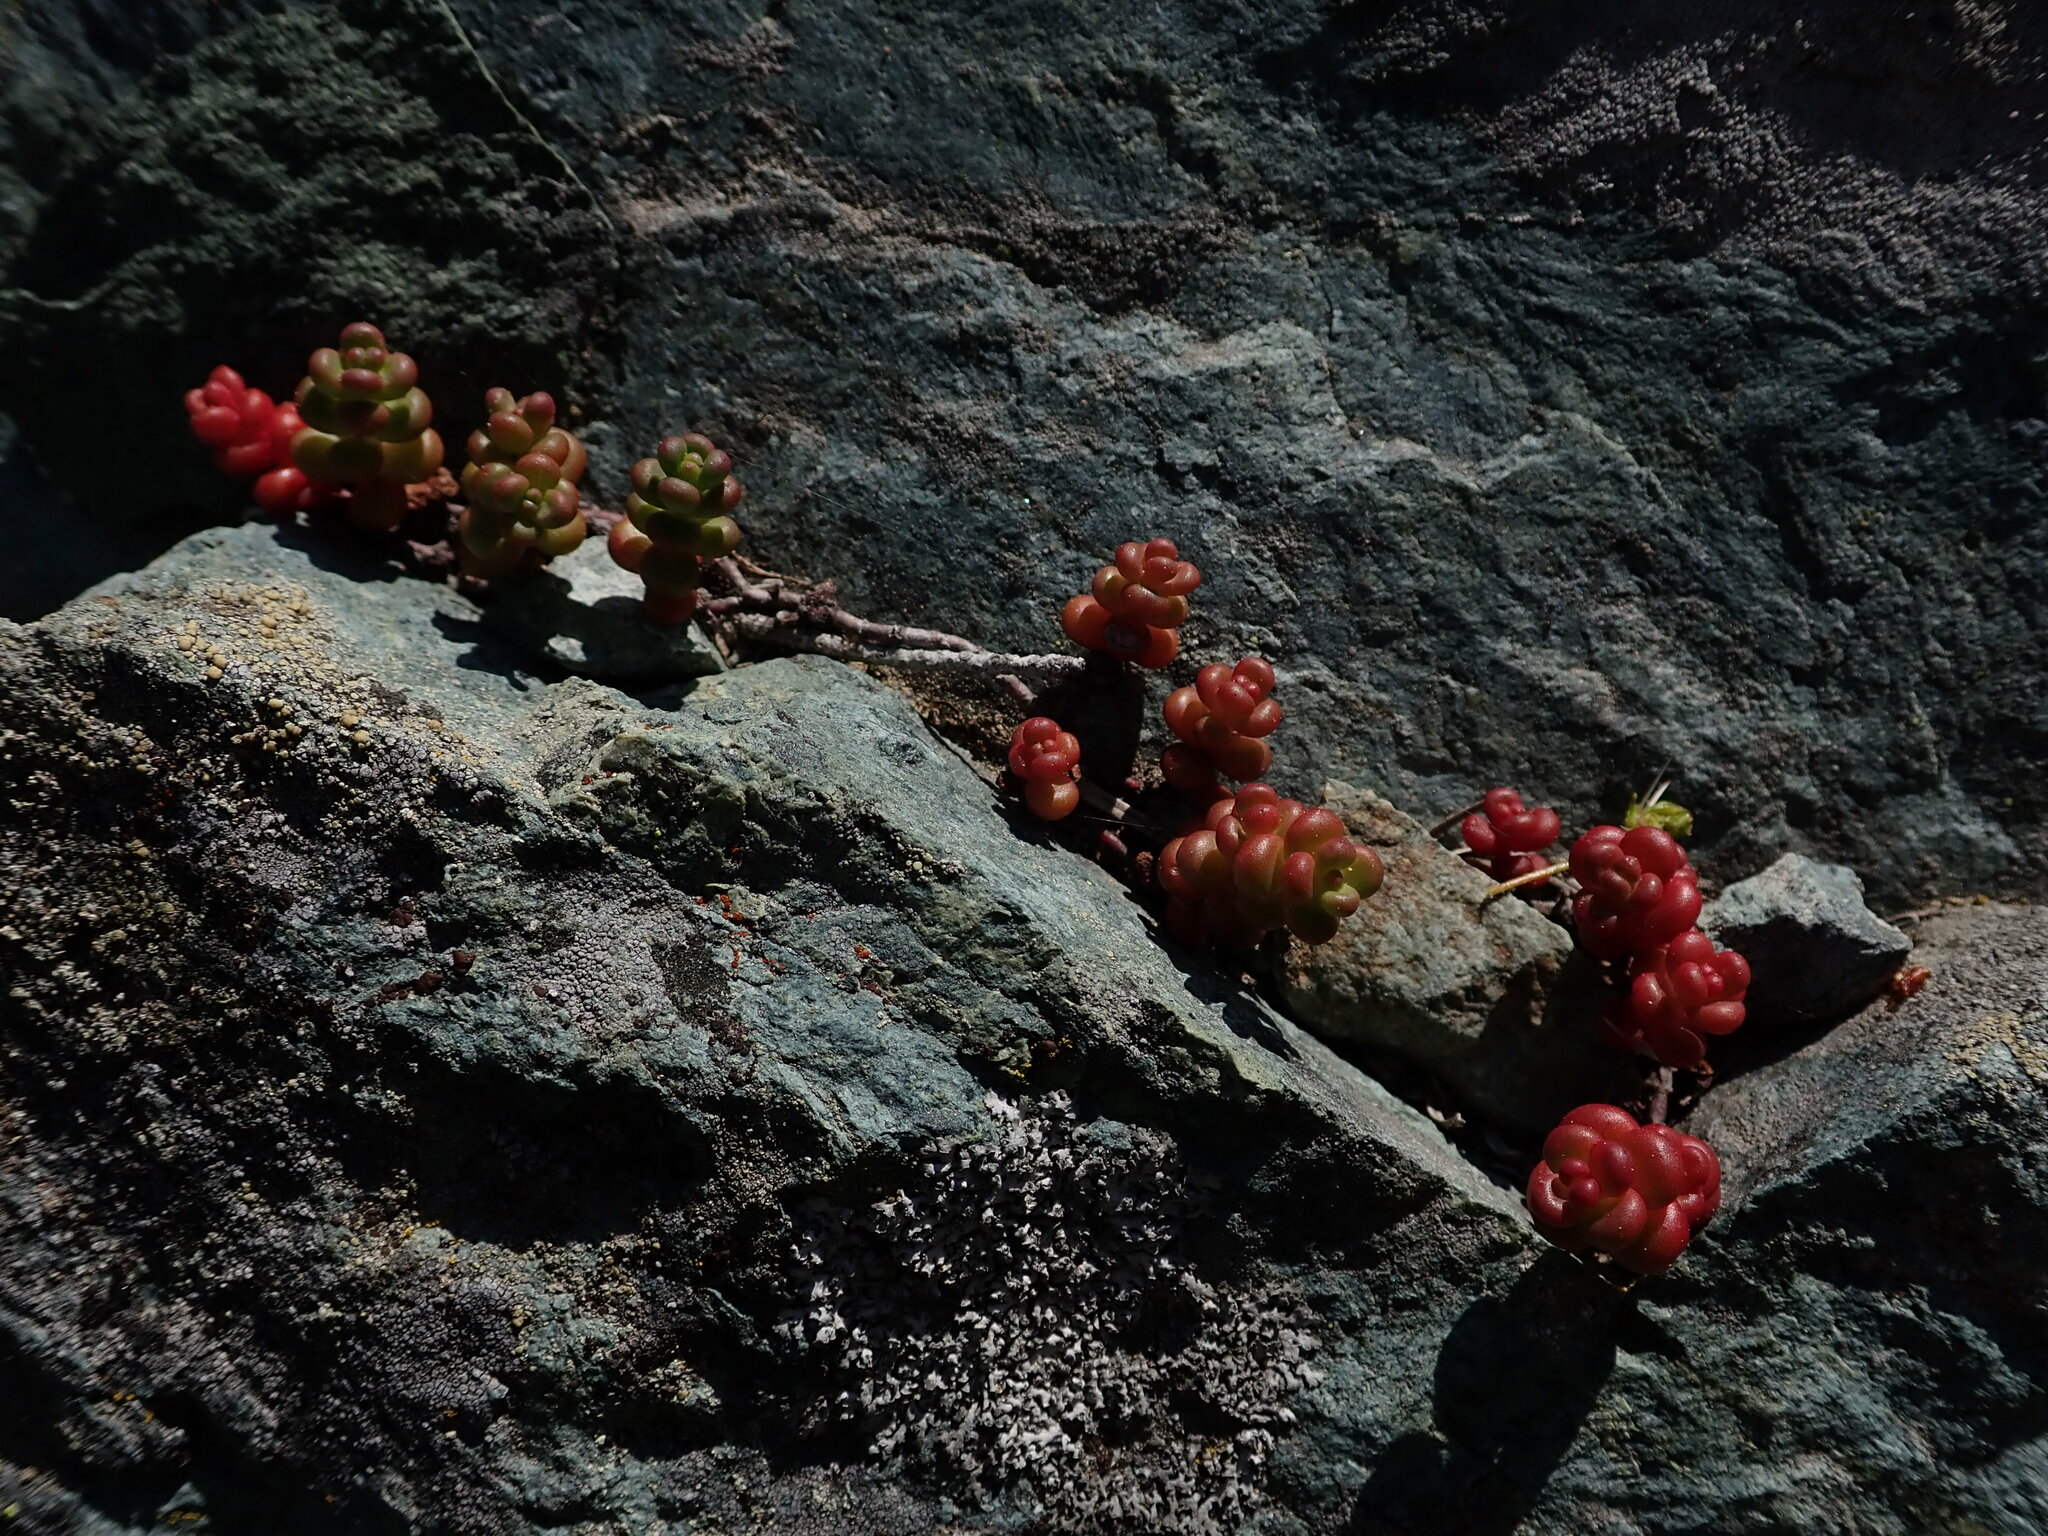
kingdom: Plantae
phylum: Tracheophyta
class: Magnoliopsida
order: Saxifragales
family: Crassulaceae
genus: Sedum
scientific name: Sedum divergens
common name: Cascade stonecrop
